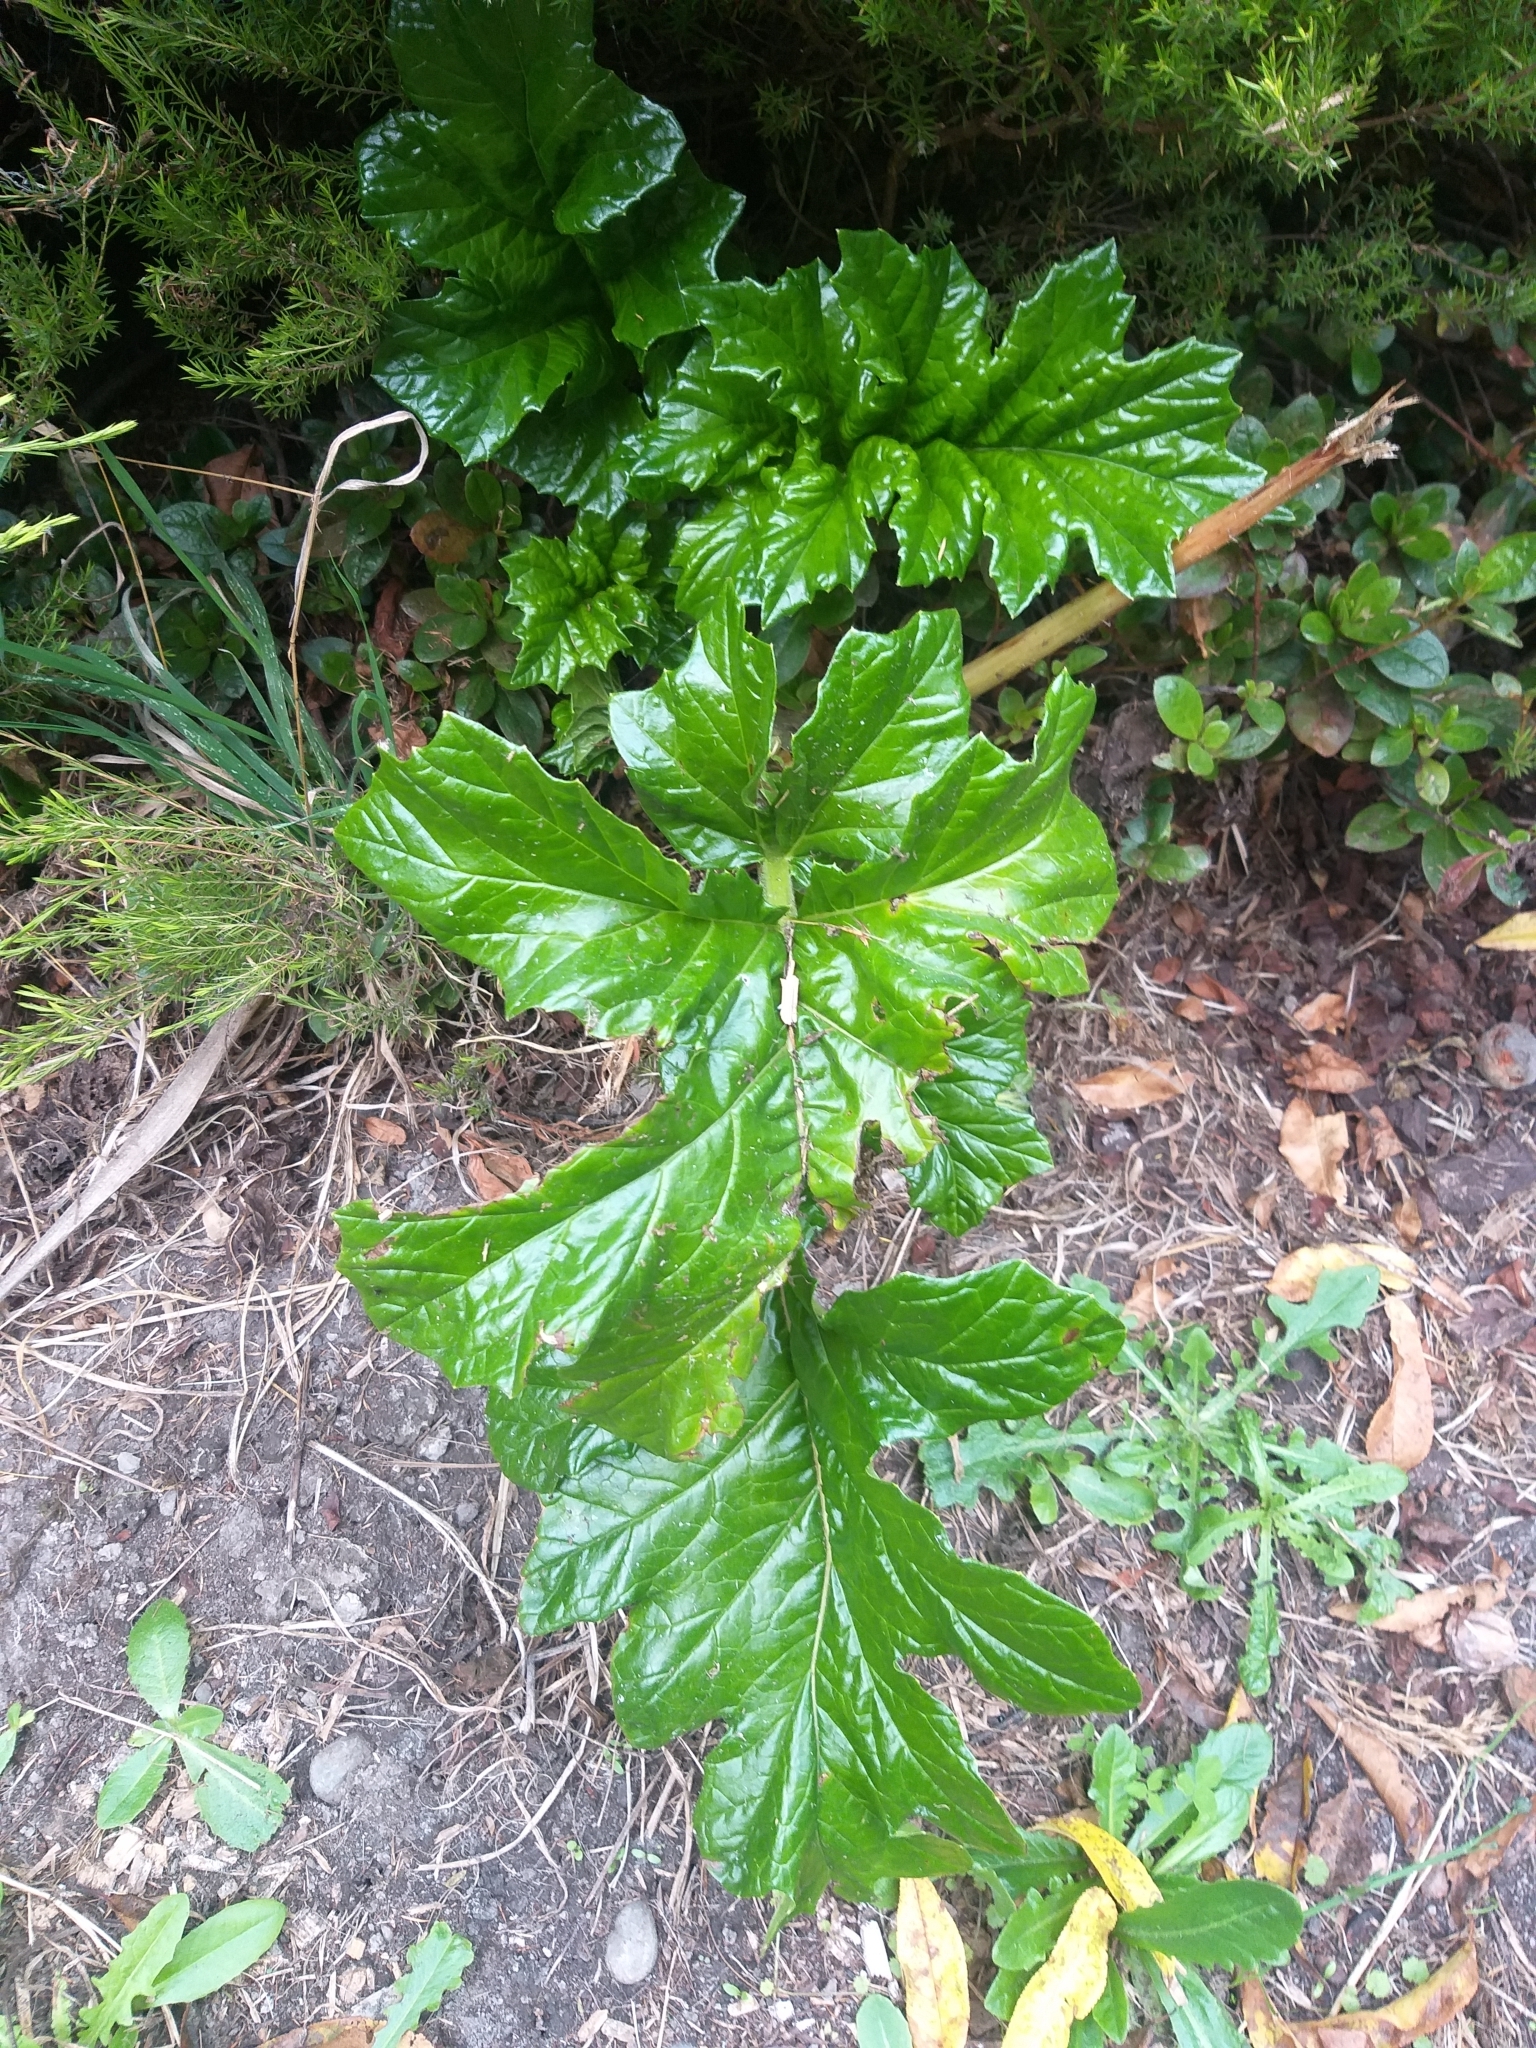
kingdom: Plantae
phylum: Tracheophyta
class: Magnoliopsida
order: Lamiales
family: Acanthaceae
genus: Acanthus
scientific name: Acanthus mollis
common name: Bear's-breech
